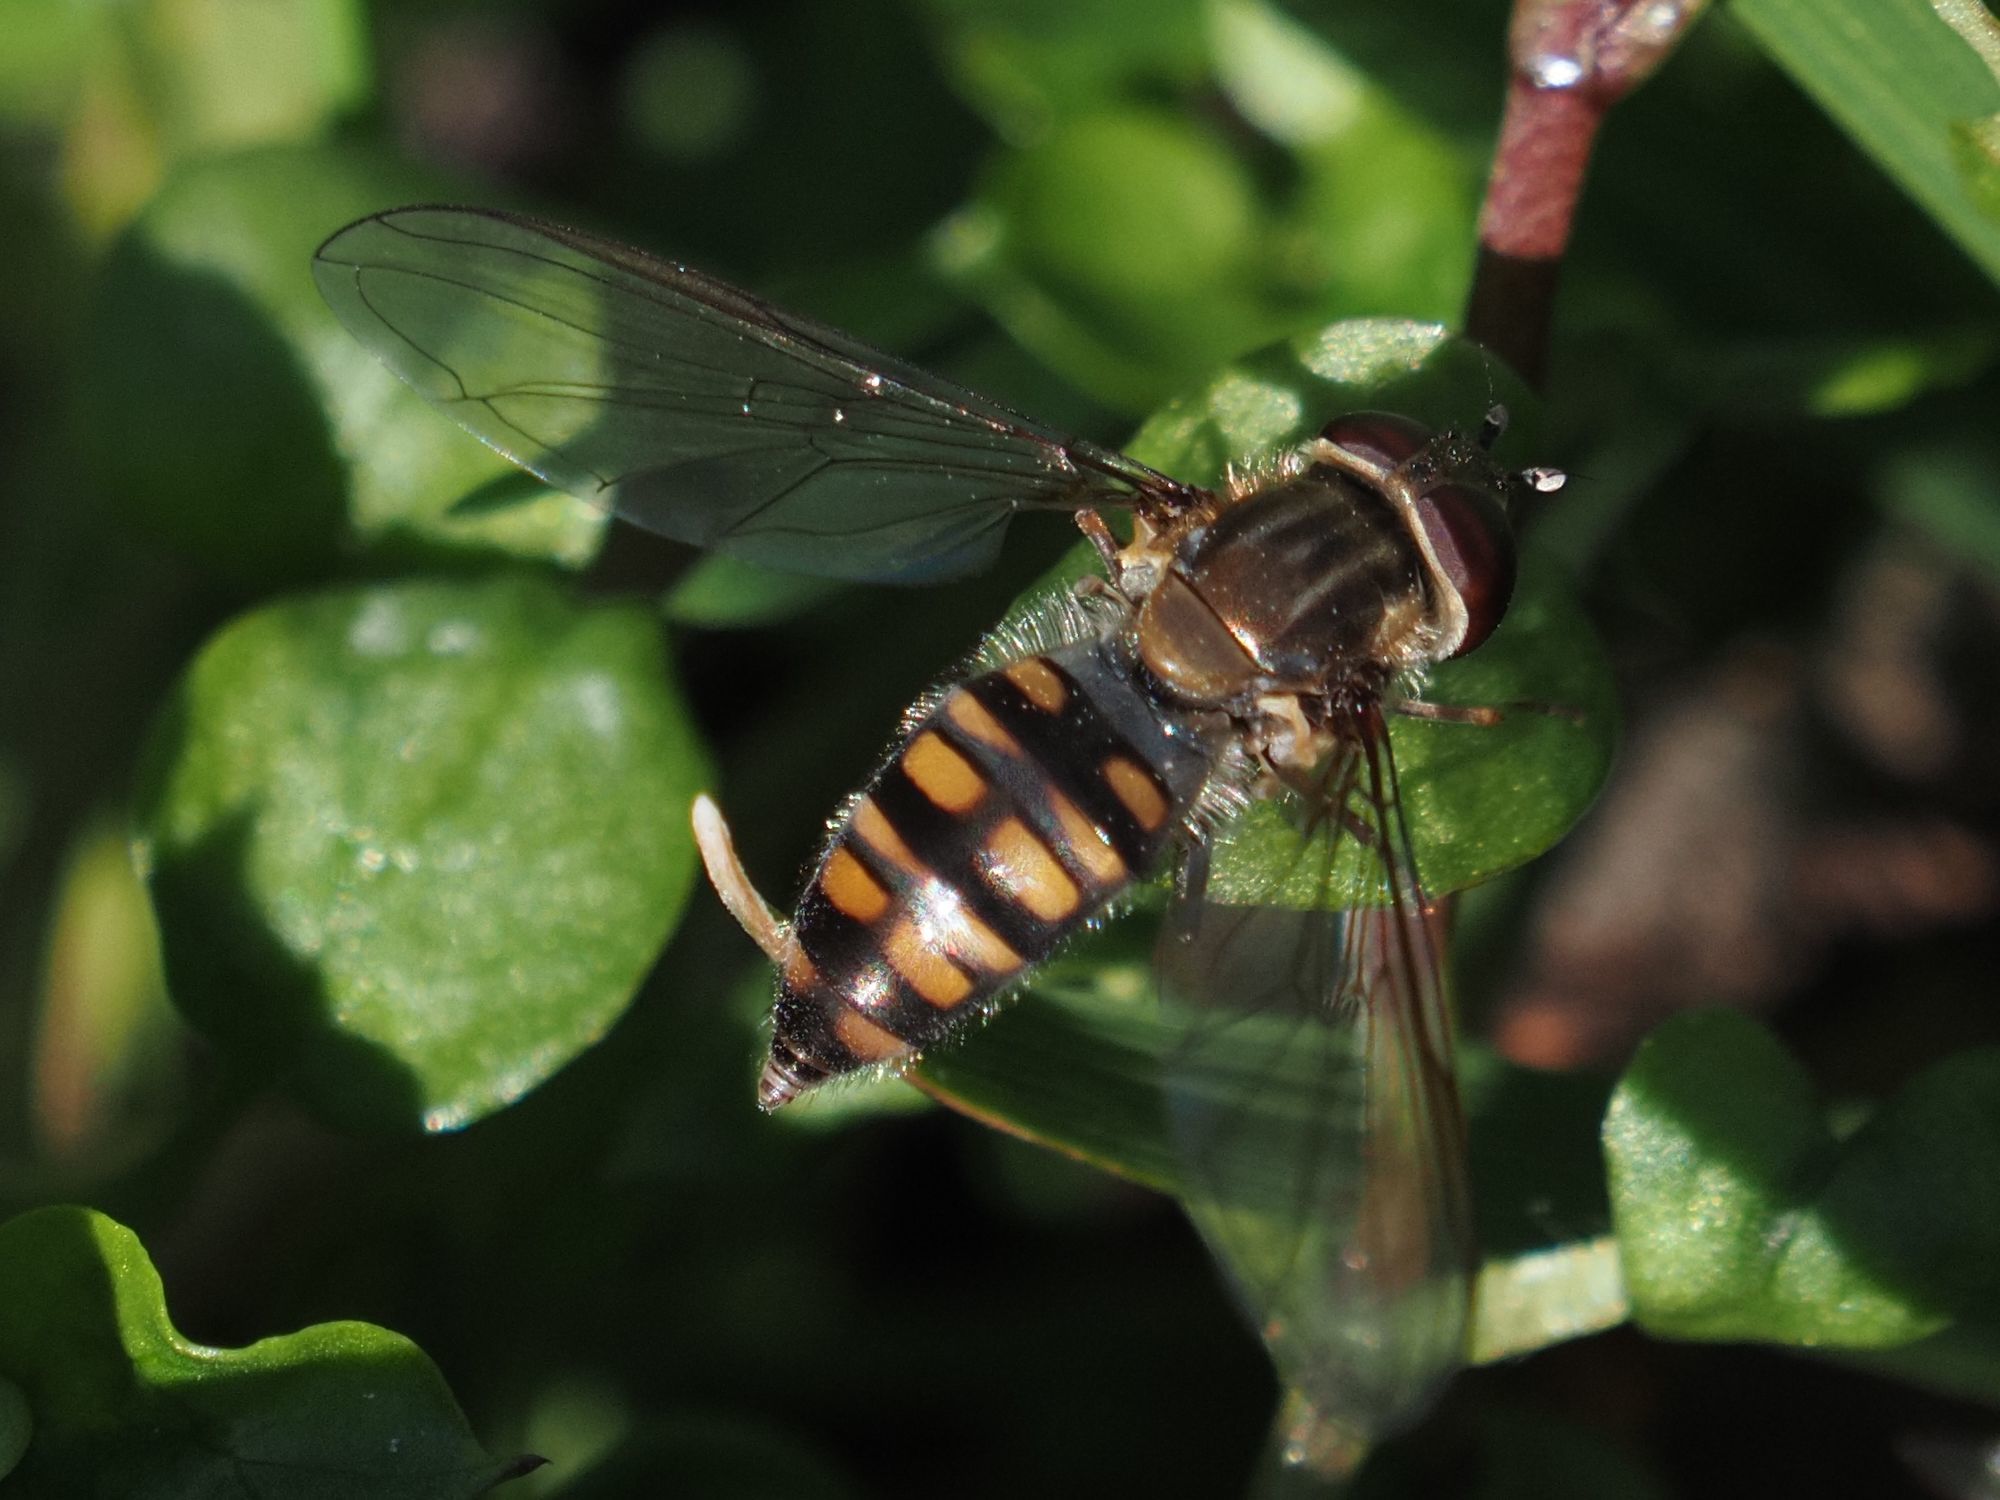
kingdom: Animalia
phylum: Arthropoda
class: Insecta
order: Diptera
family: Syrphidae
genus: Episyrphus
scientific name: Episyrphus balteatus
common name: Marmalade hoverfly
